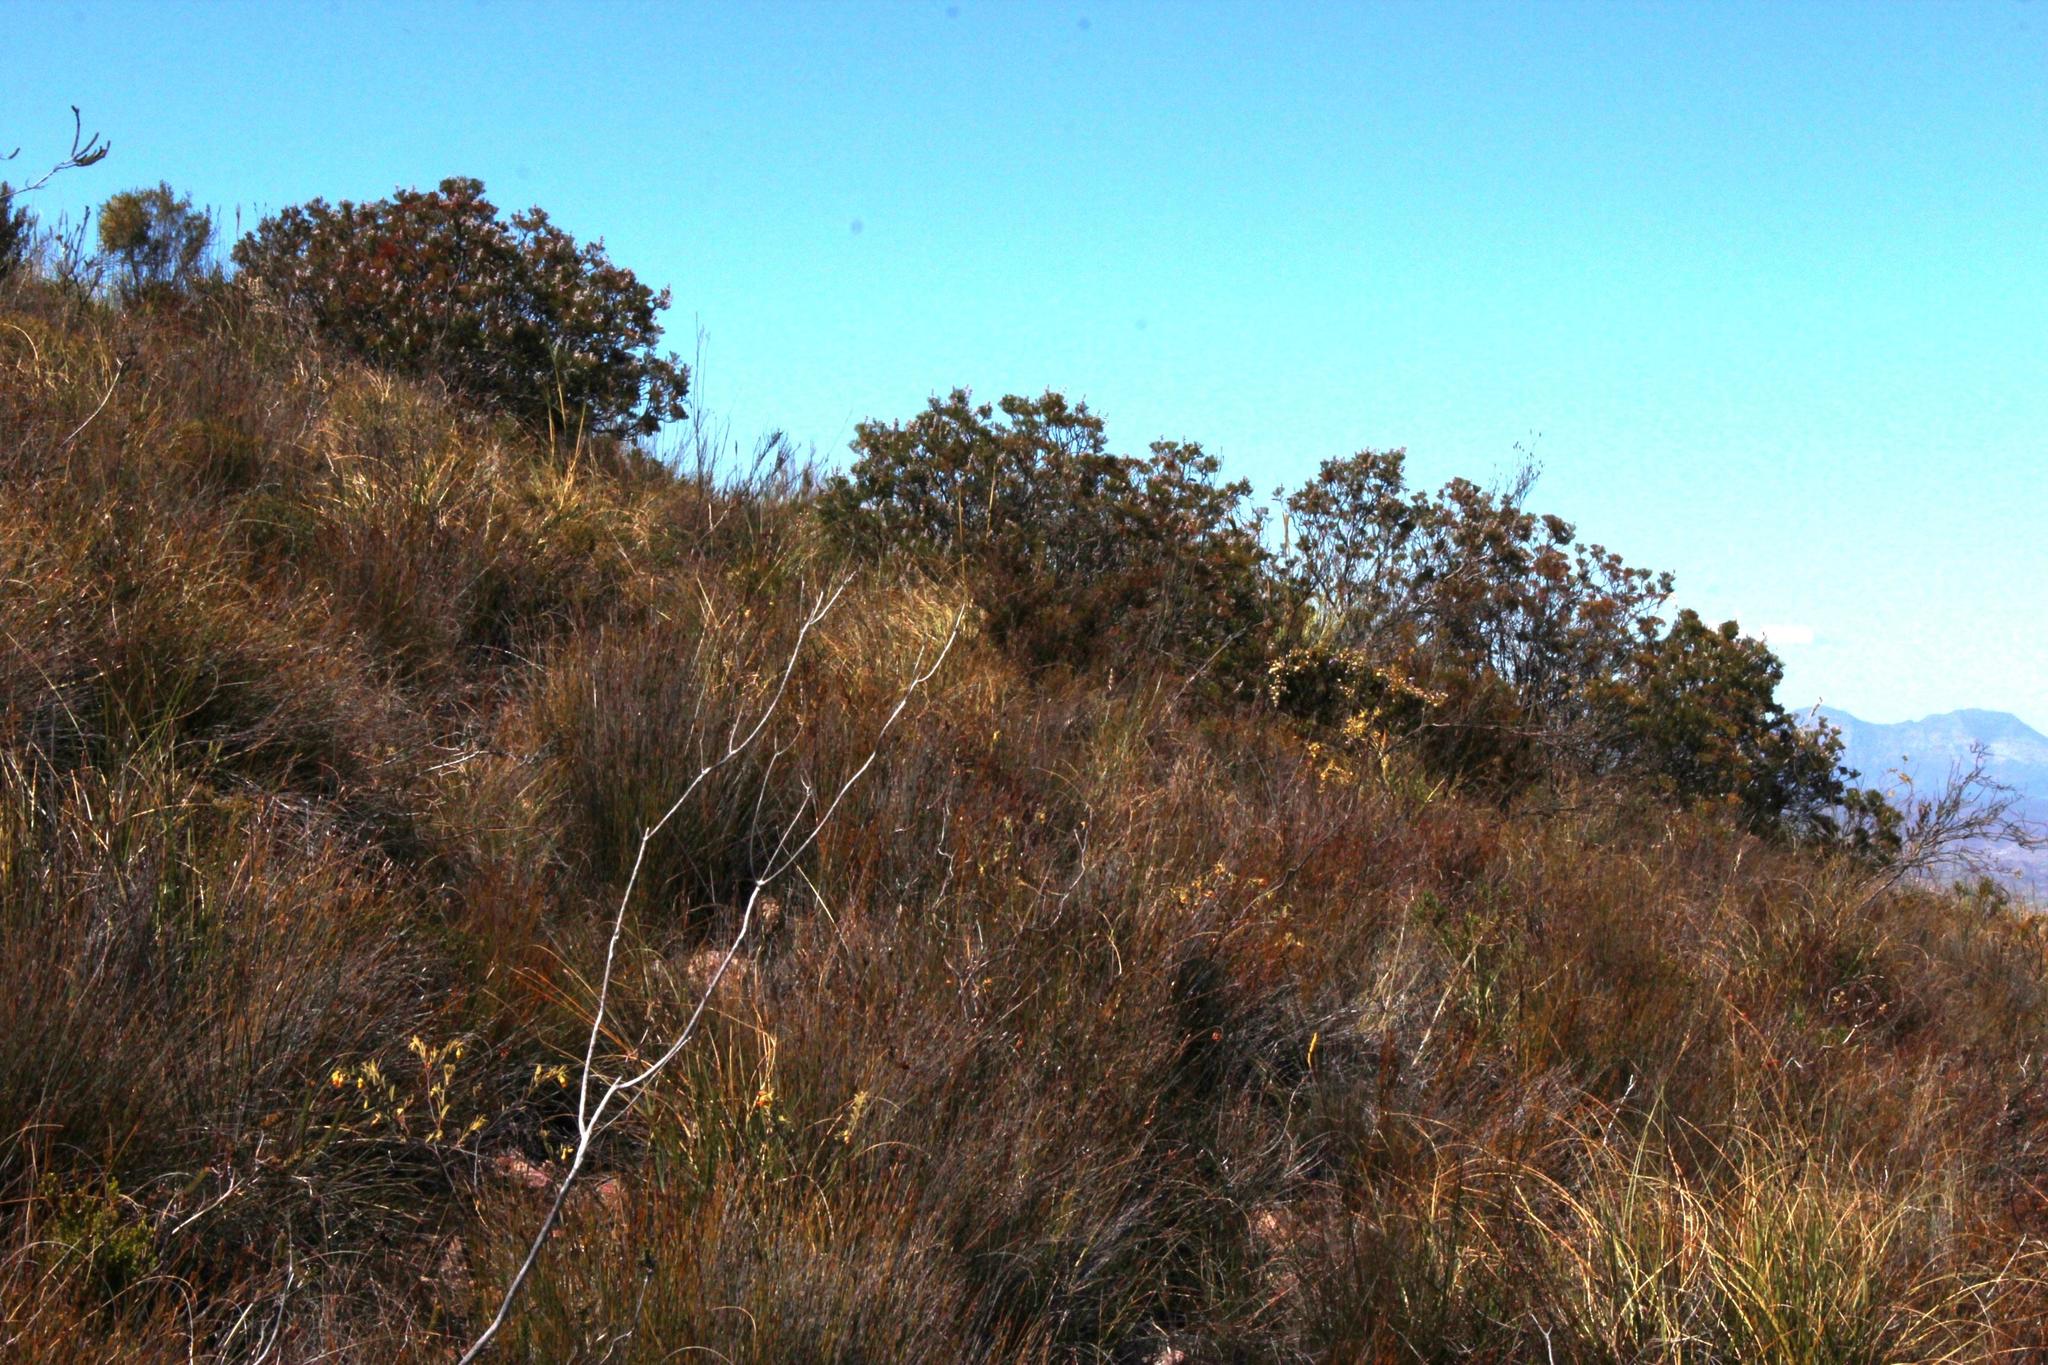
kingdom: Plantae
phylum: Tracheophyta
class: Magnoliopsida
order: Proteales
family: Proteaceae
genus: Protea
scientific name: Protea neriifolia
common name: Blue sugarbush
